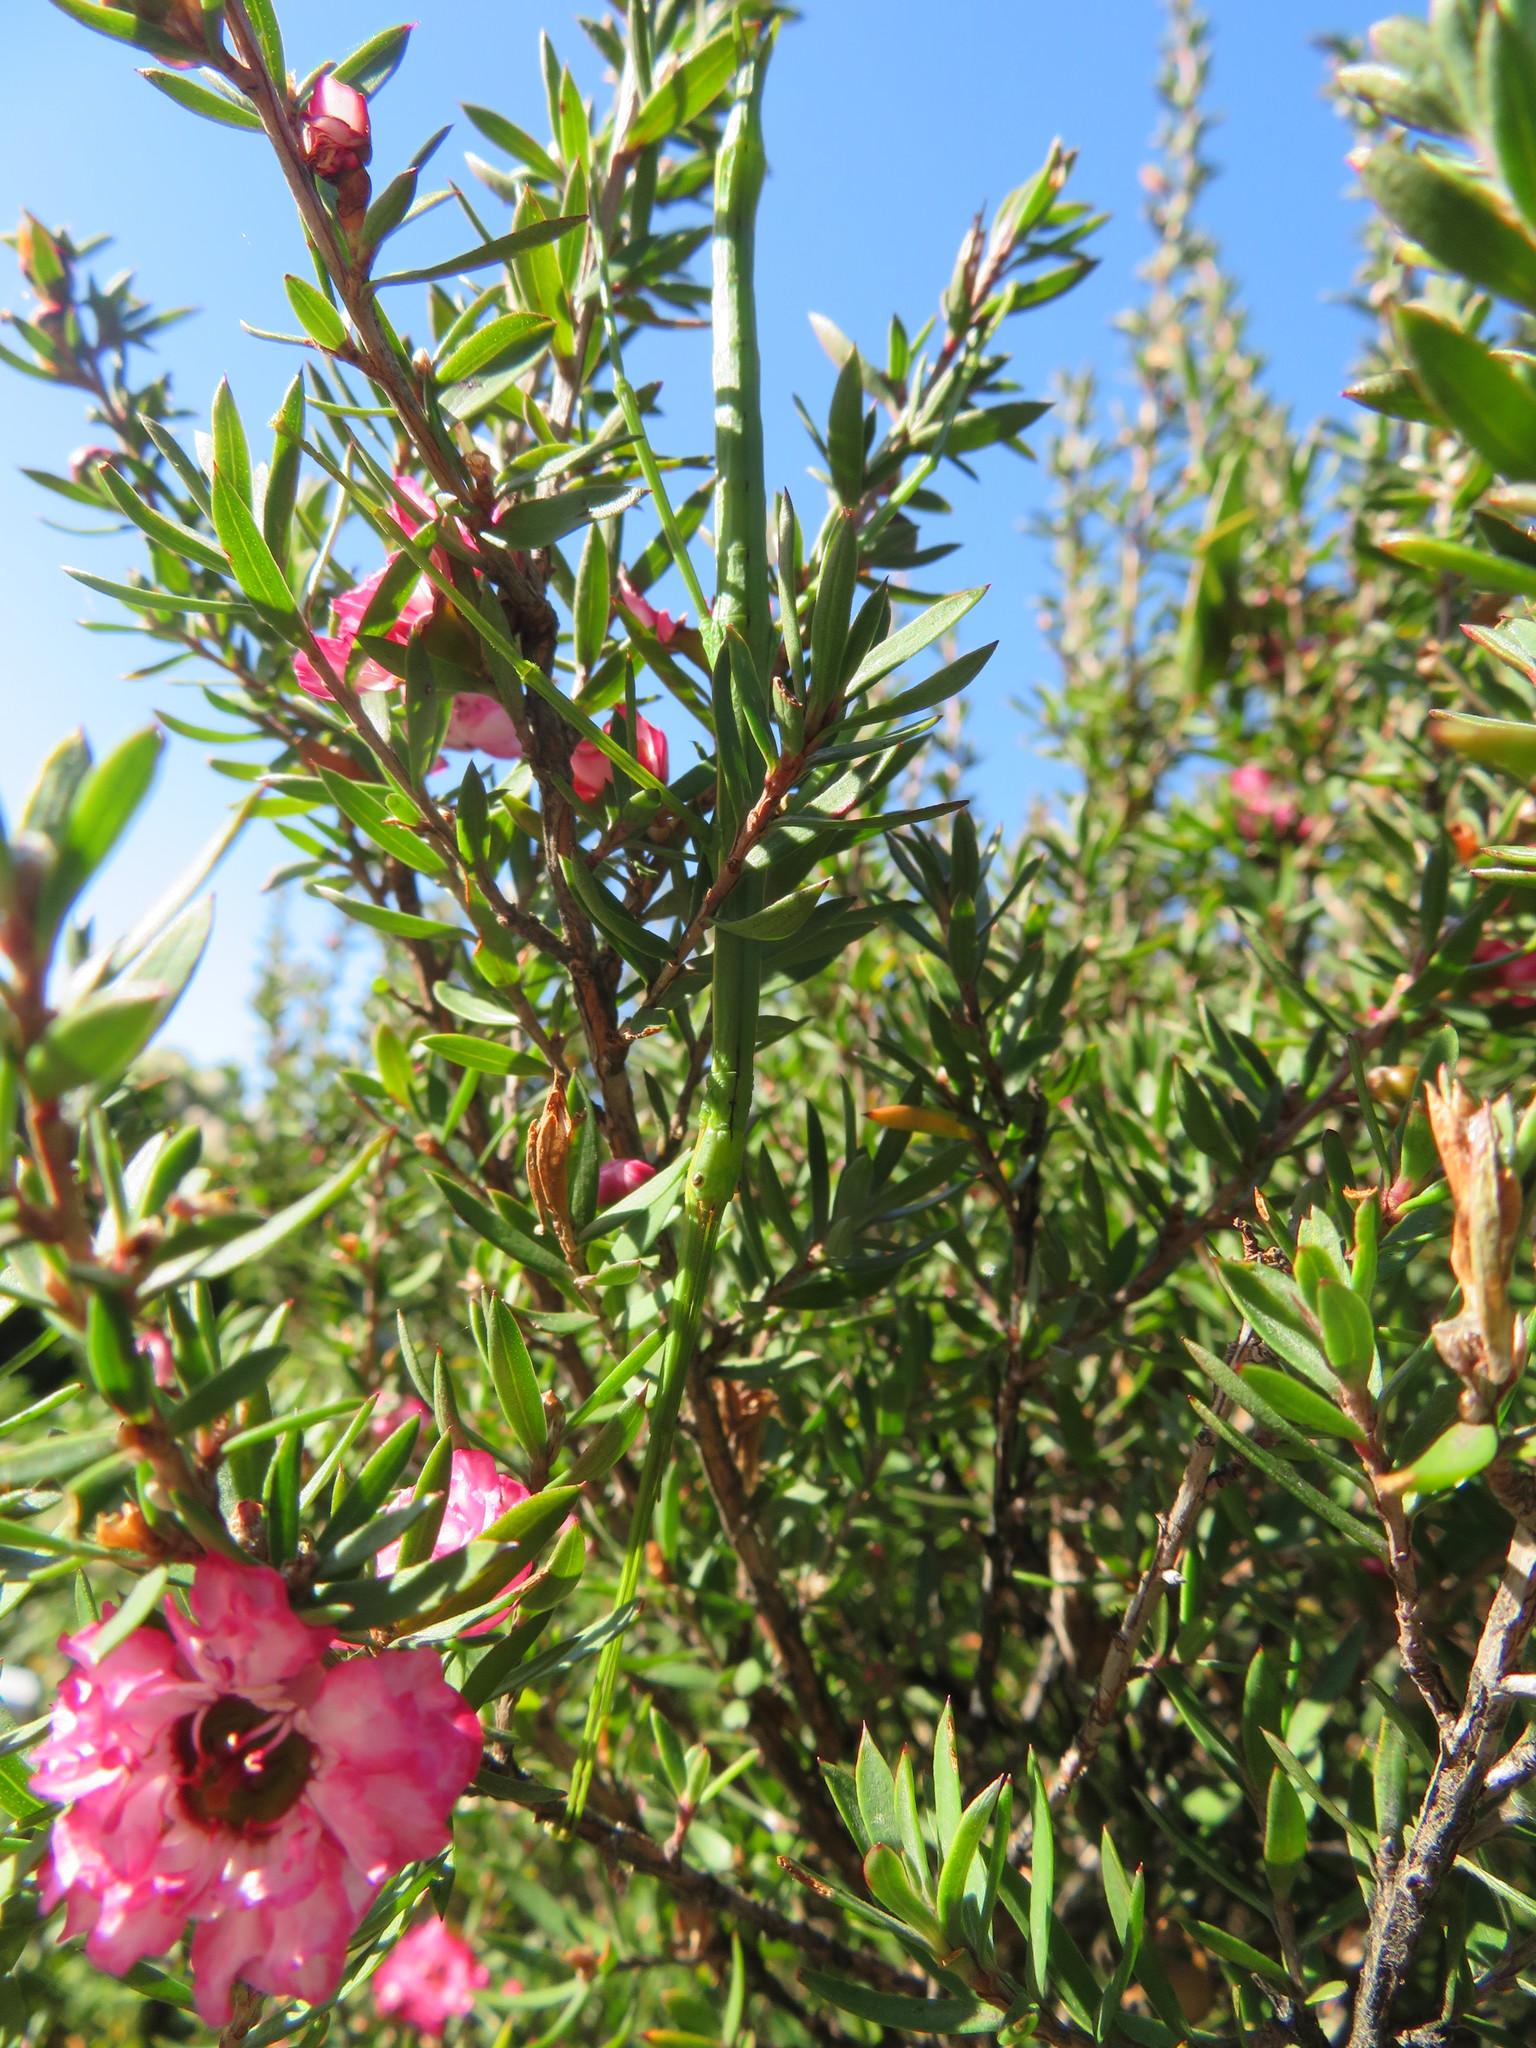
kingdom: Animalia
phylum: Arthropoda
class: Insecta
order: Phasmida
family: Phasmatidae
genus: Clitarchus
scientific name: Clitarchus hookeri
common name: Smooth stick insect
